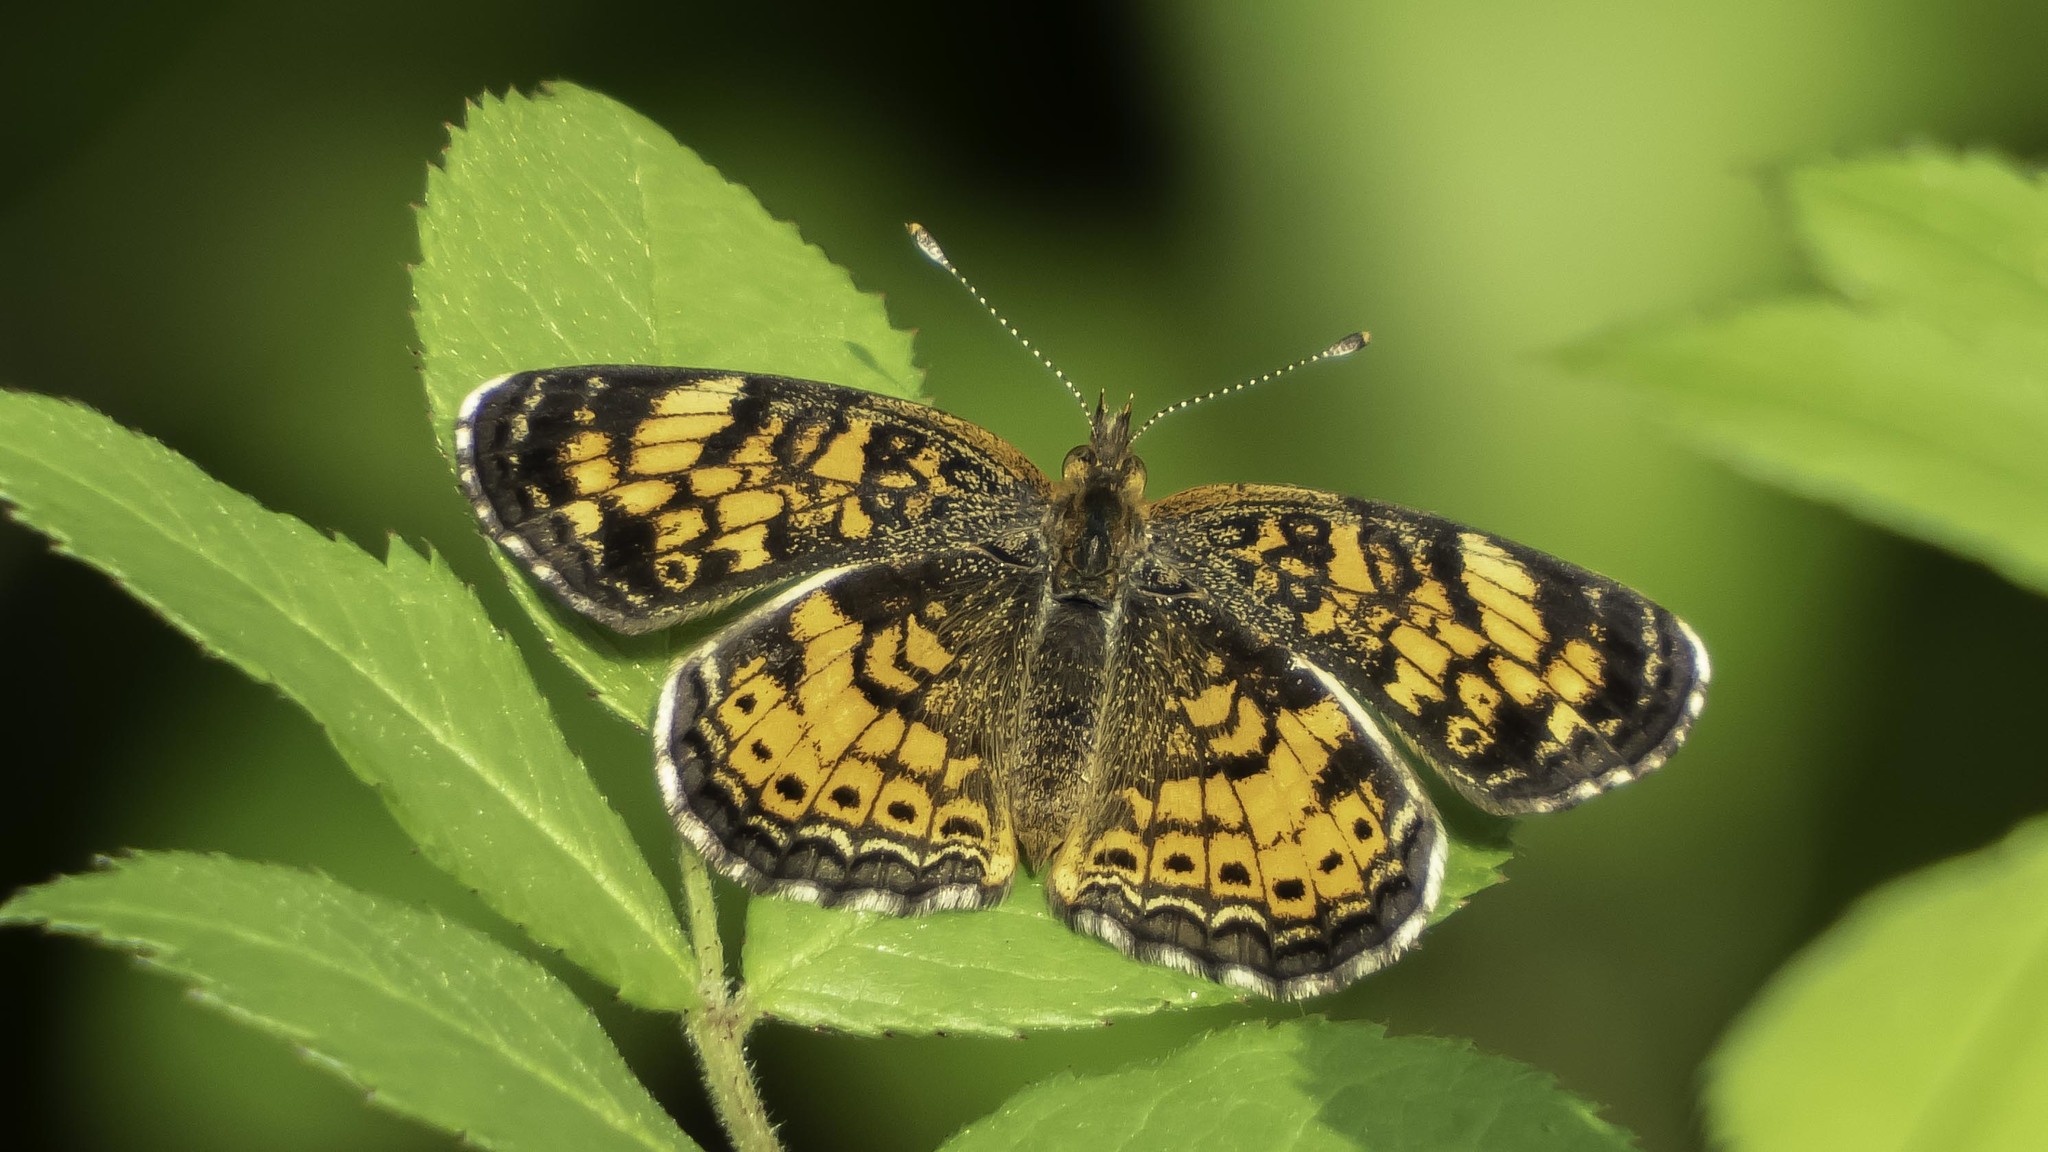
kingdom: Animalia
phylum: Arthropoda
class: Insecta
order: Lepidoptera
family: Nymphalidae
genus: Phyciodes
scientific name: Phyciodes tharos
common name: Pearl crescent
